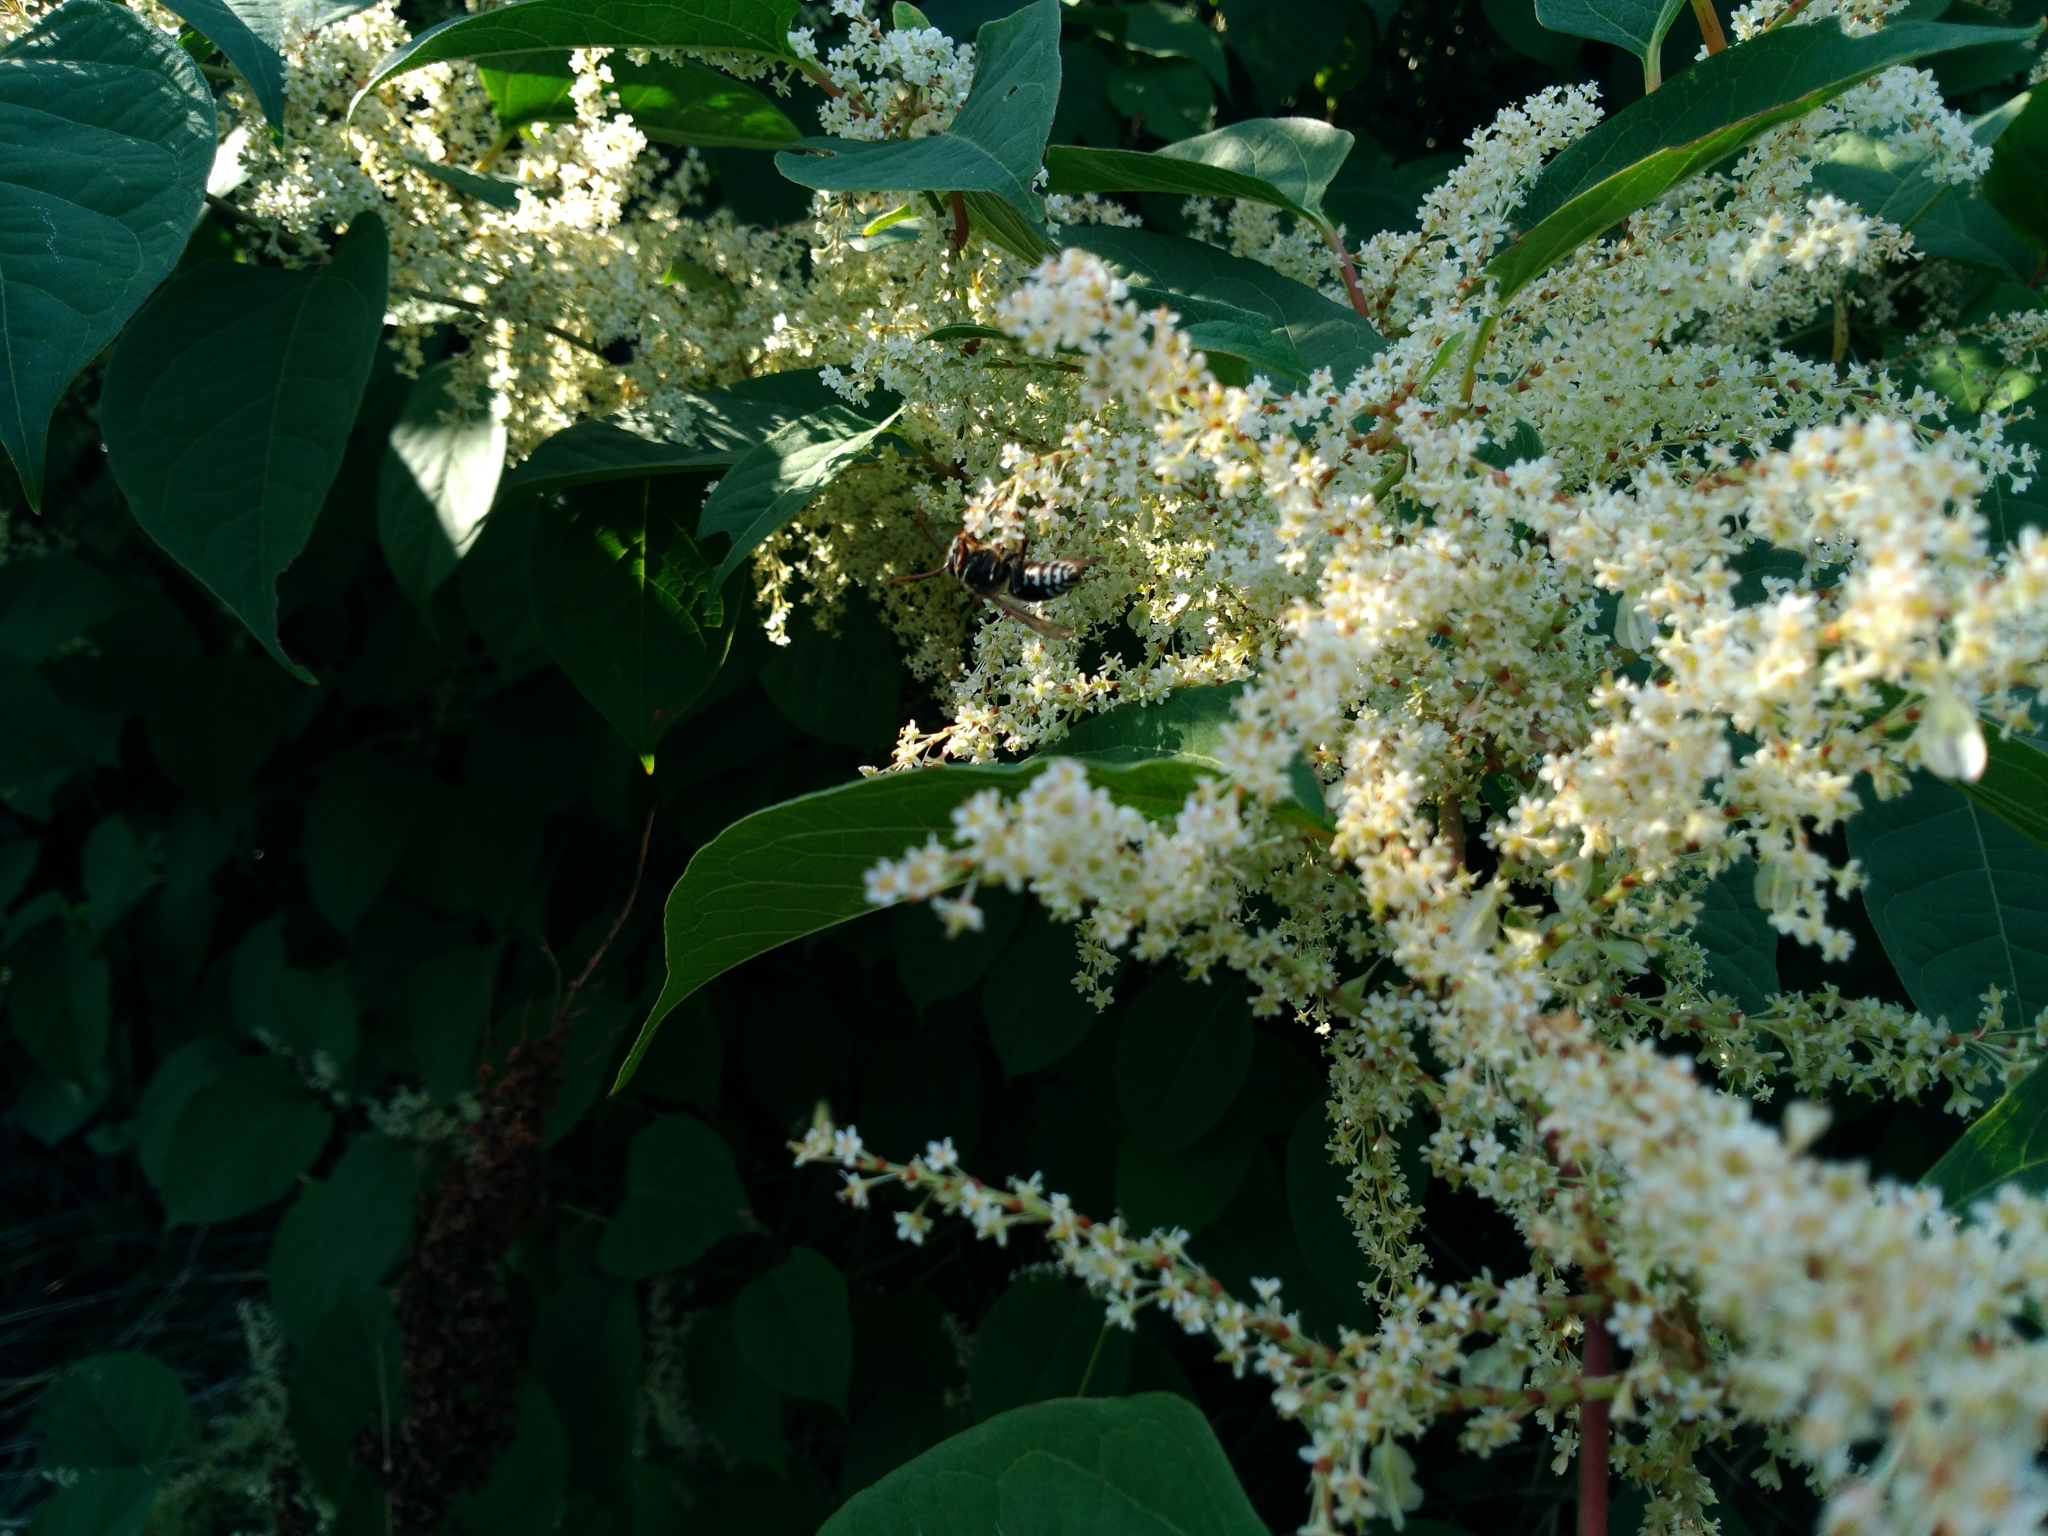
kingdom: Plantae
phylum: Tracheophyta
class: Magnoliopsida
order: Caryophyllales
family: Polygonaceae
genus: Reynoutria
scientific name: Reynoutria japonica
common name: Japanese knotweed
